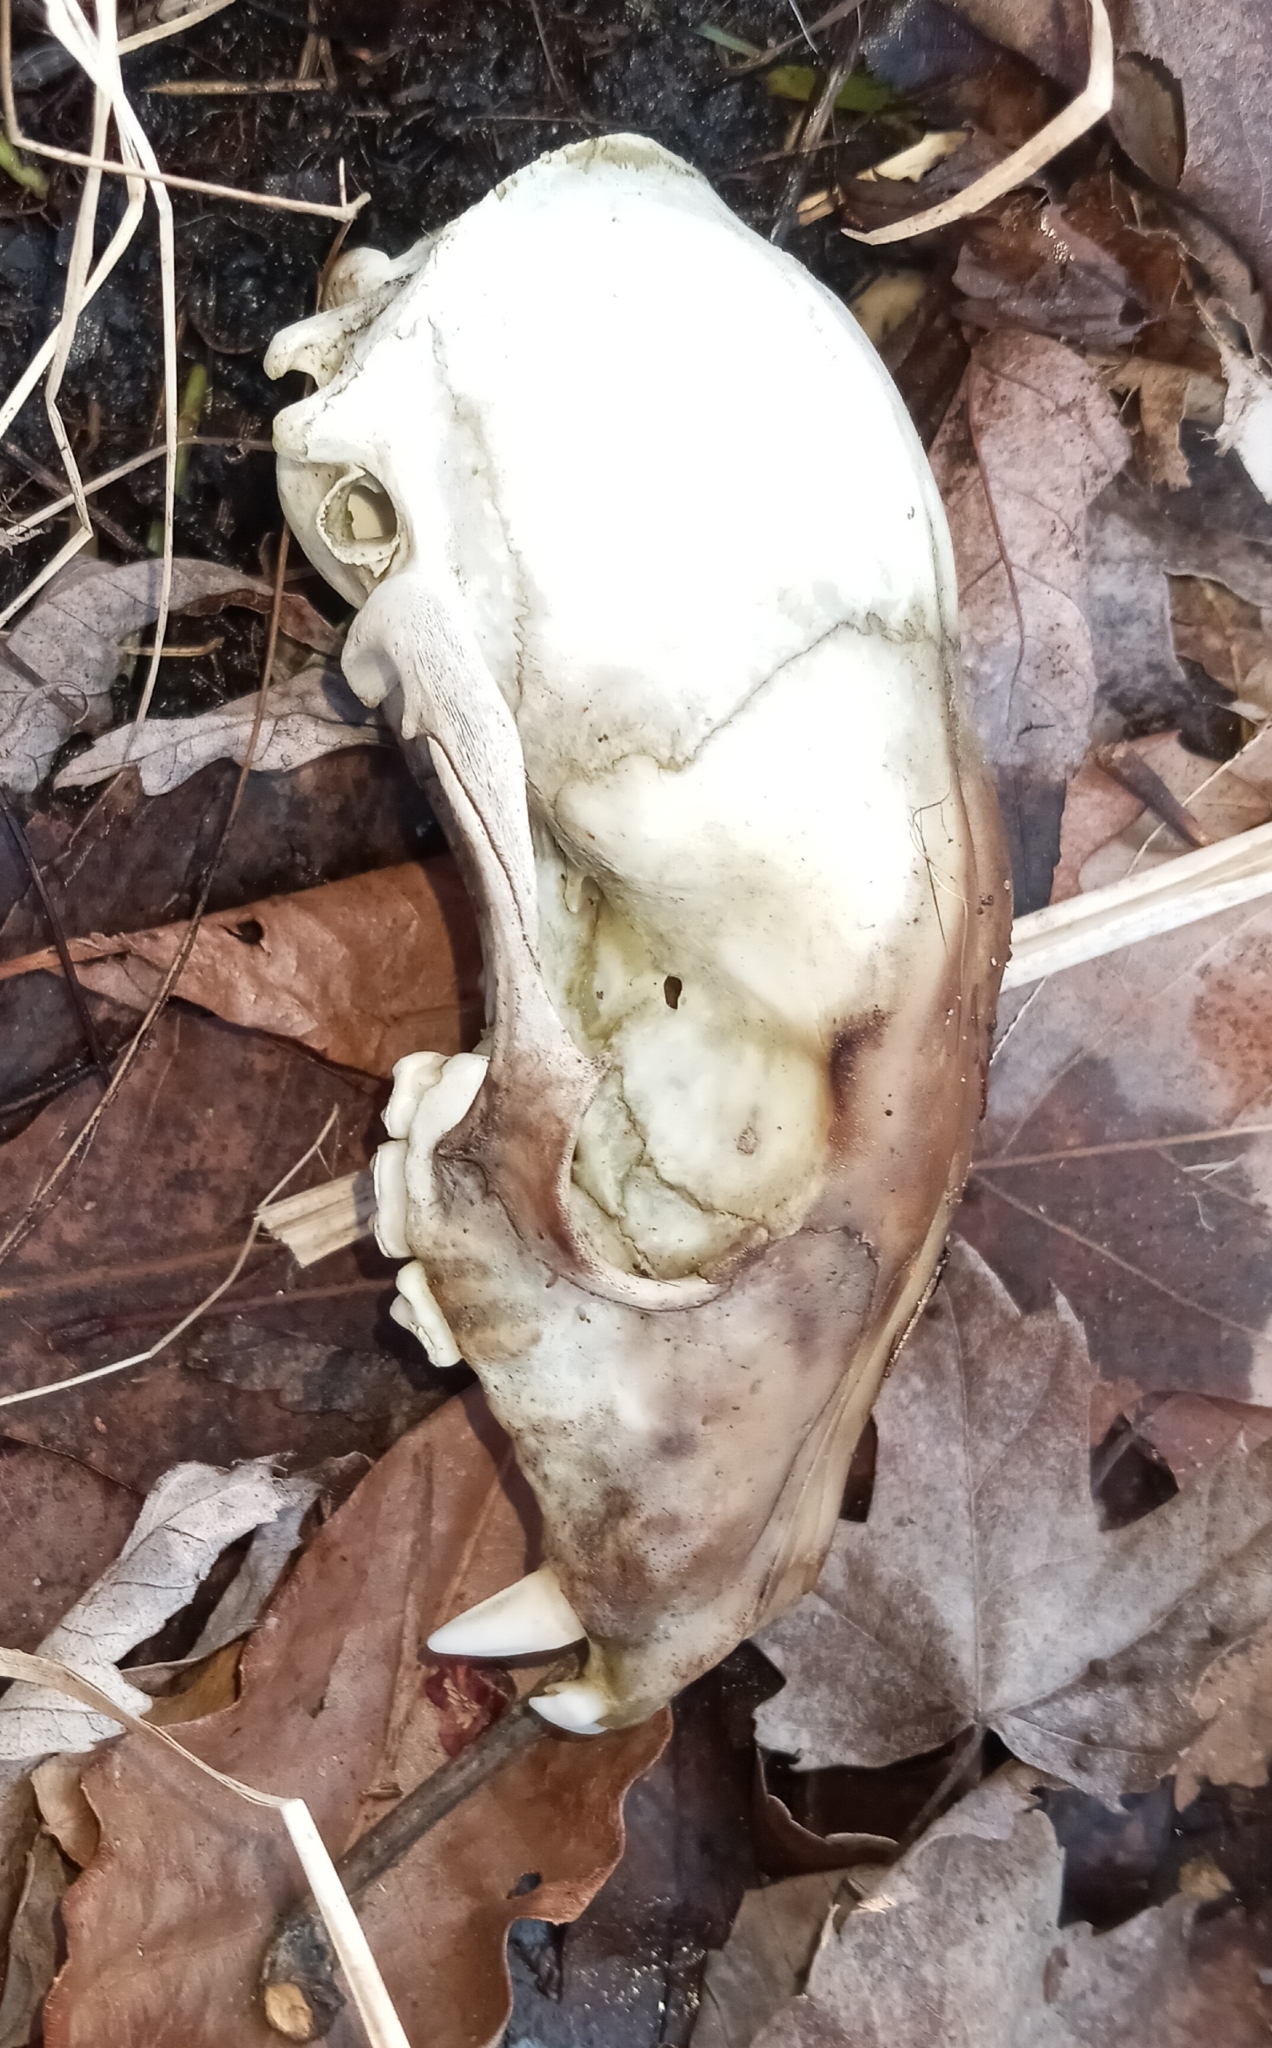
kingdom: Animalia
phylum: Chordata
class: Mammalia
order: Carnivora
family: Procyonidae
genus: Procyon
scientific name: Procyon lotor
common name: Raccoon
